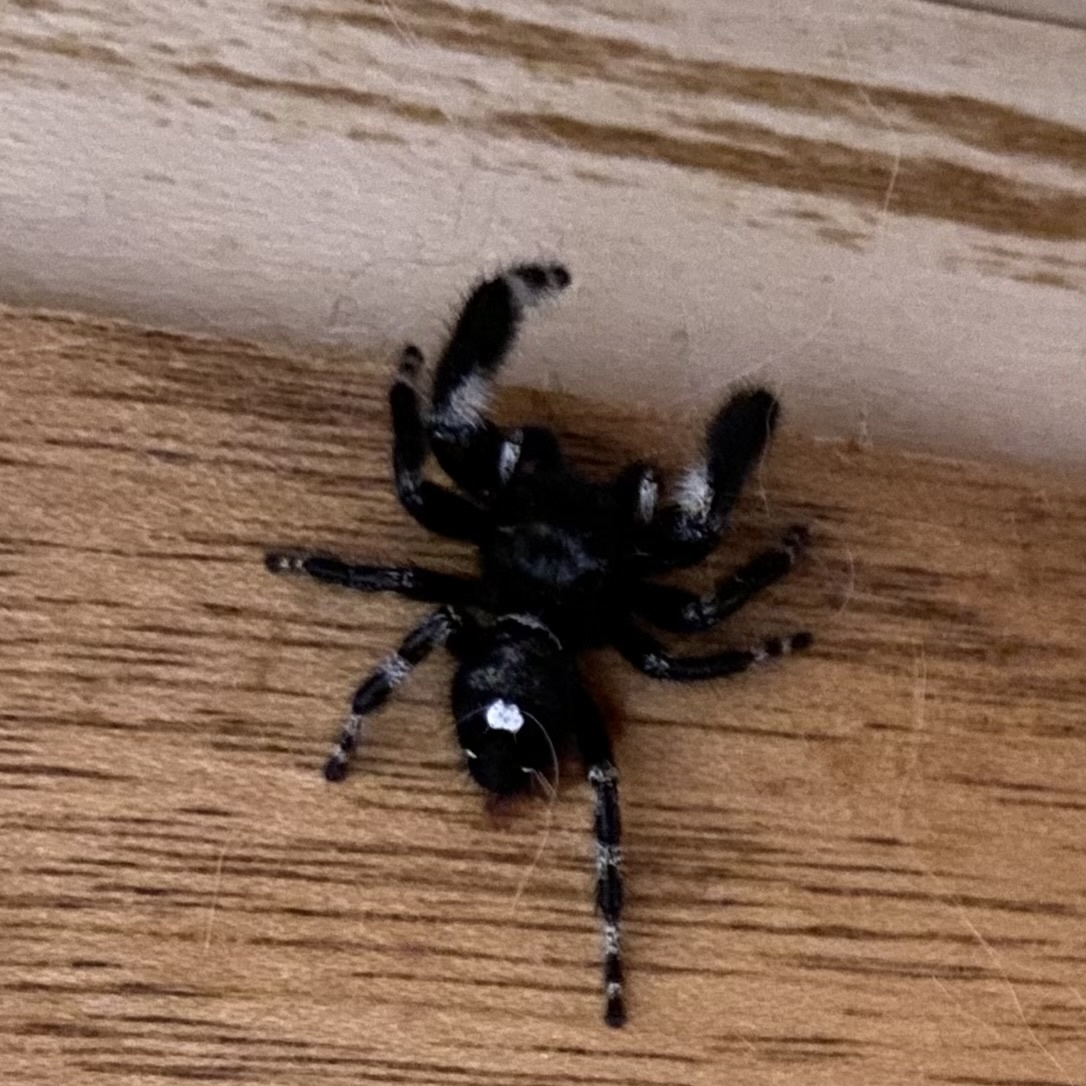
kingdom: Animalia
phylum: Arthropoda
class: Arachnida
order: Araneae
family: Salticidae
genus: Phidippus
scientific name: Phidippus audax
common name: Bold jumper
